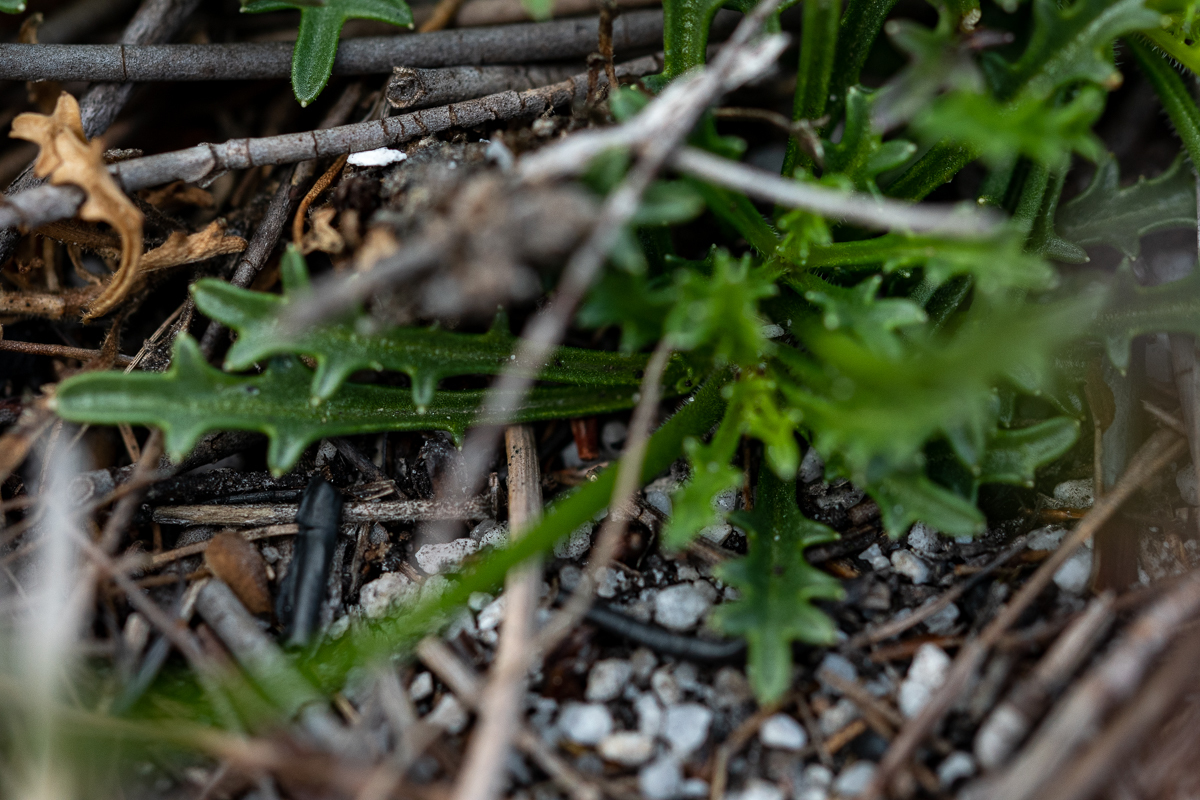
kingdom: Plantae
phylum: Tracheophyta
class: Magnoliopsida
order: Asterales
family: Campanulaceae
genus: Lobelia
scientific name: Lobelia coronopifolia
